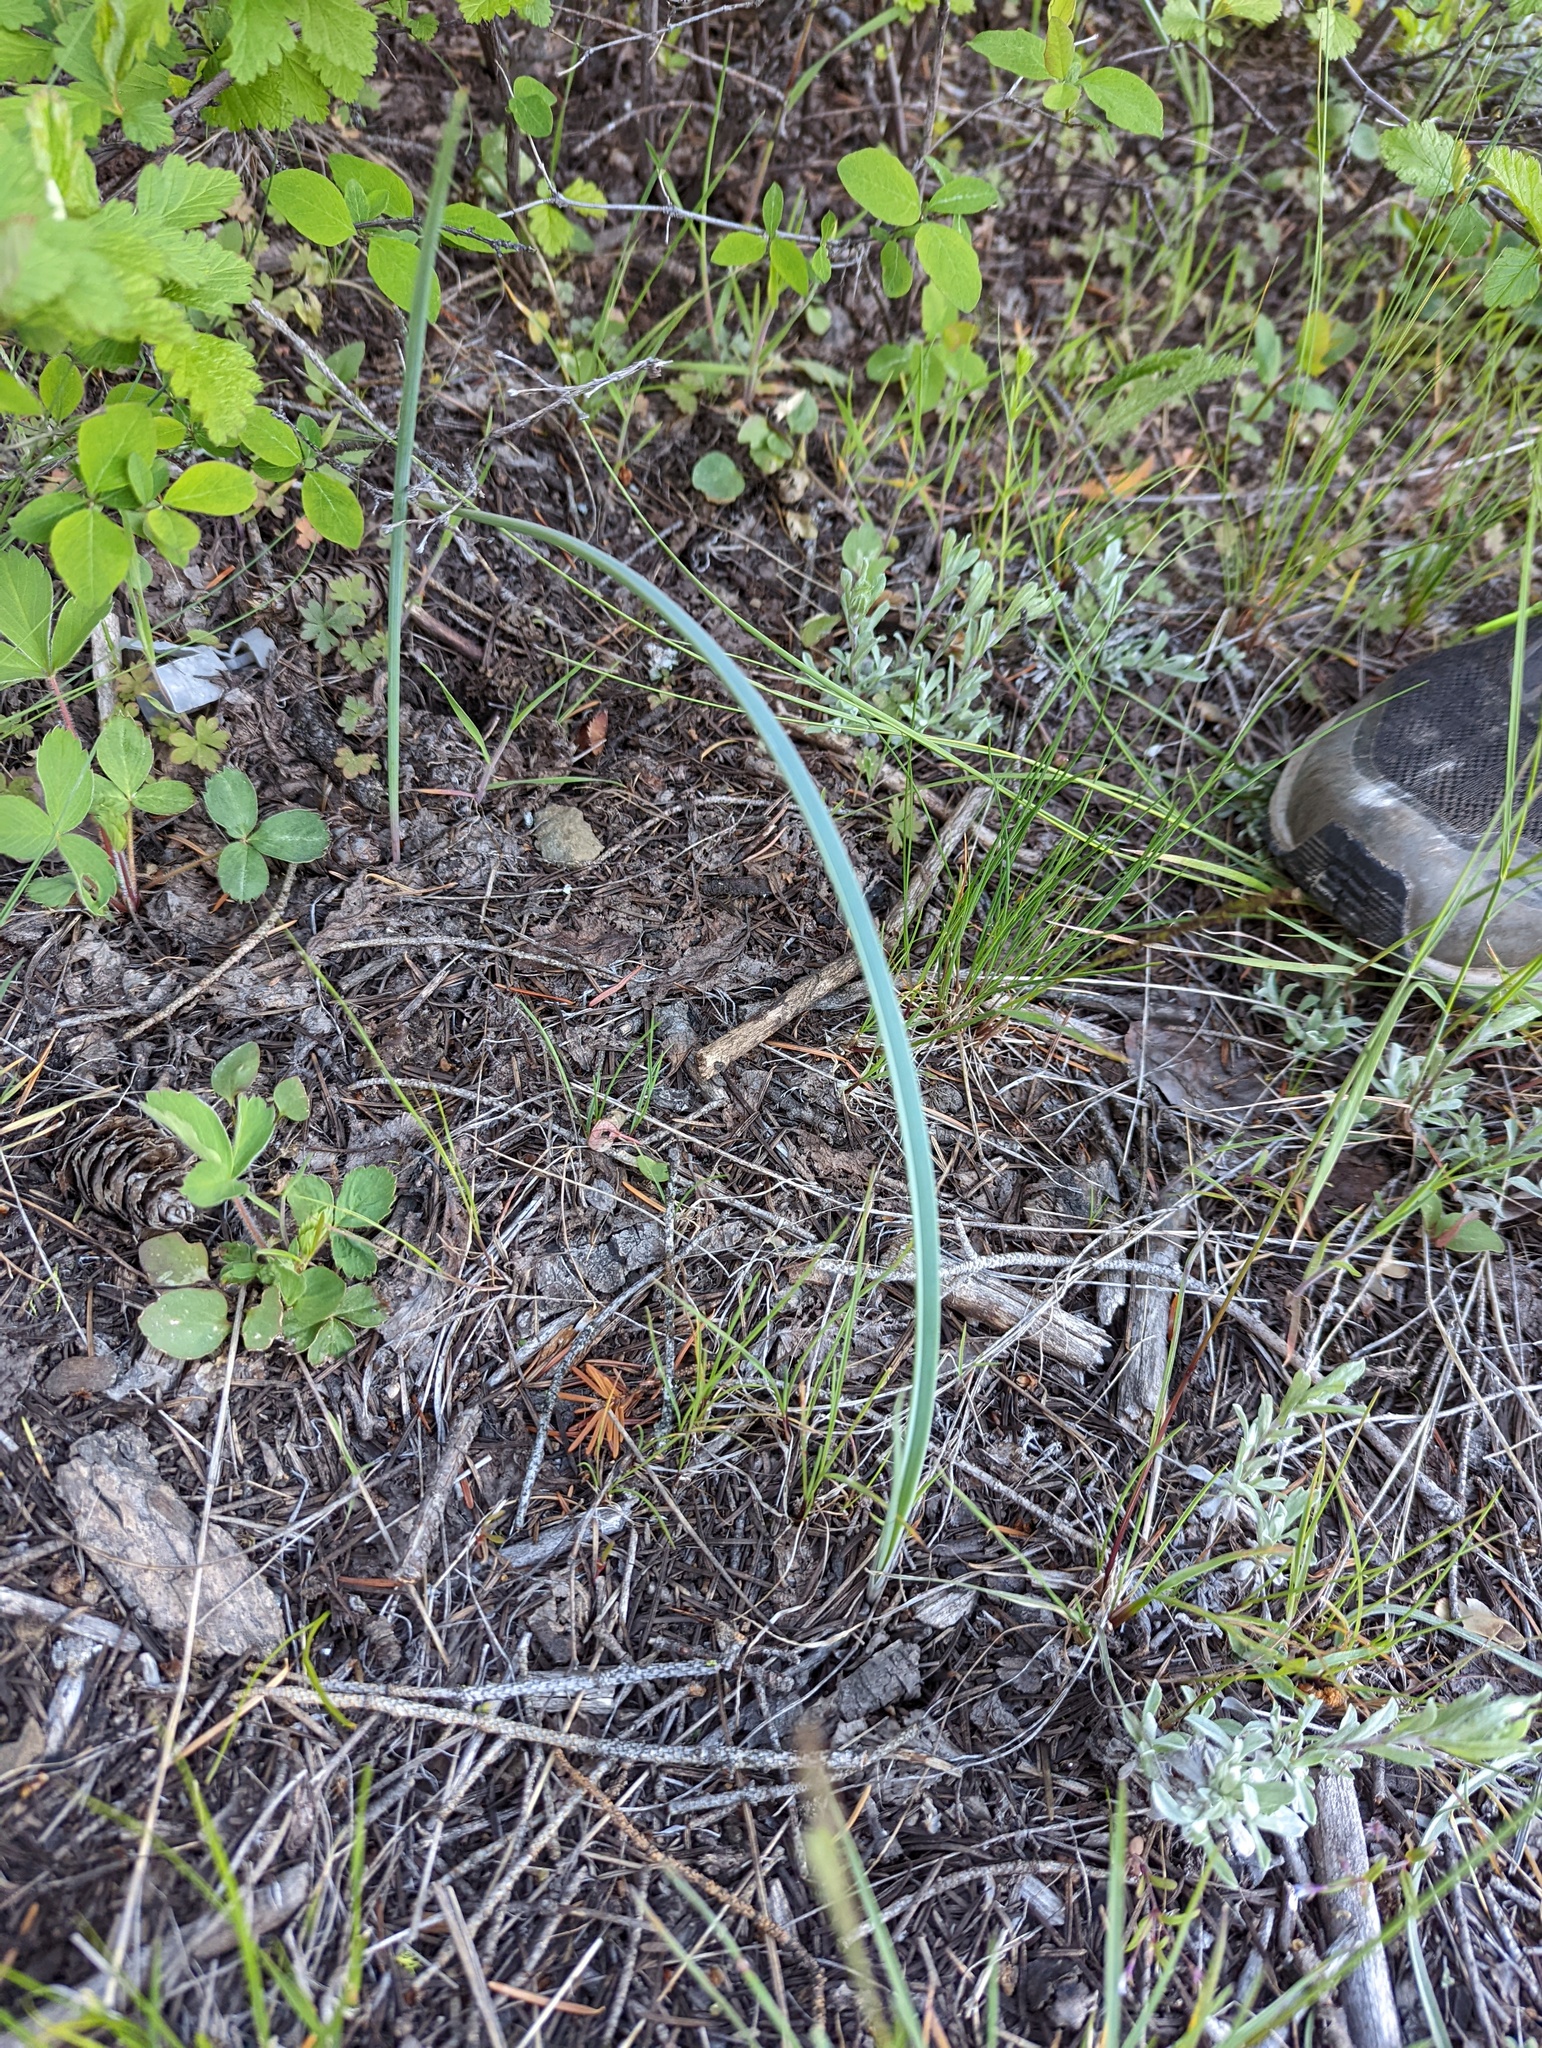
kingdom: Plantae
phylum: Tracheophyta
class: Liliopsida
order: Liliales
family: Liliaceae
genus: Calochortus
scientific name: Calochortus macrocarpus
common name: Green-band mariposa lily
